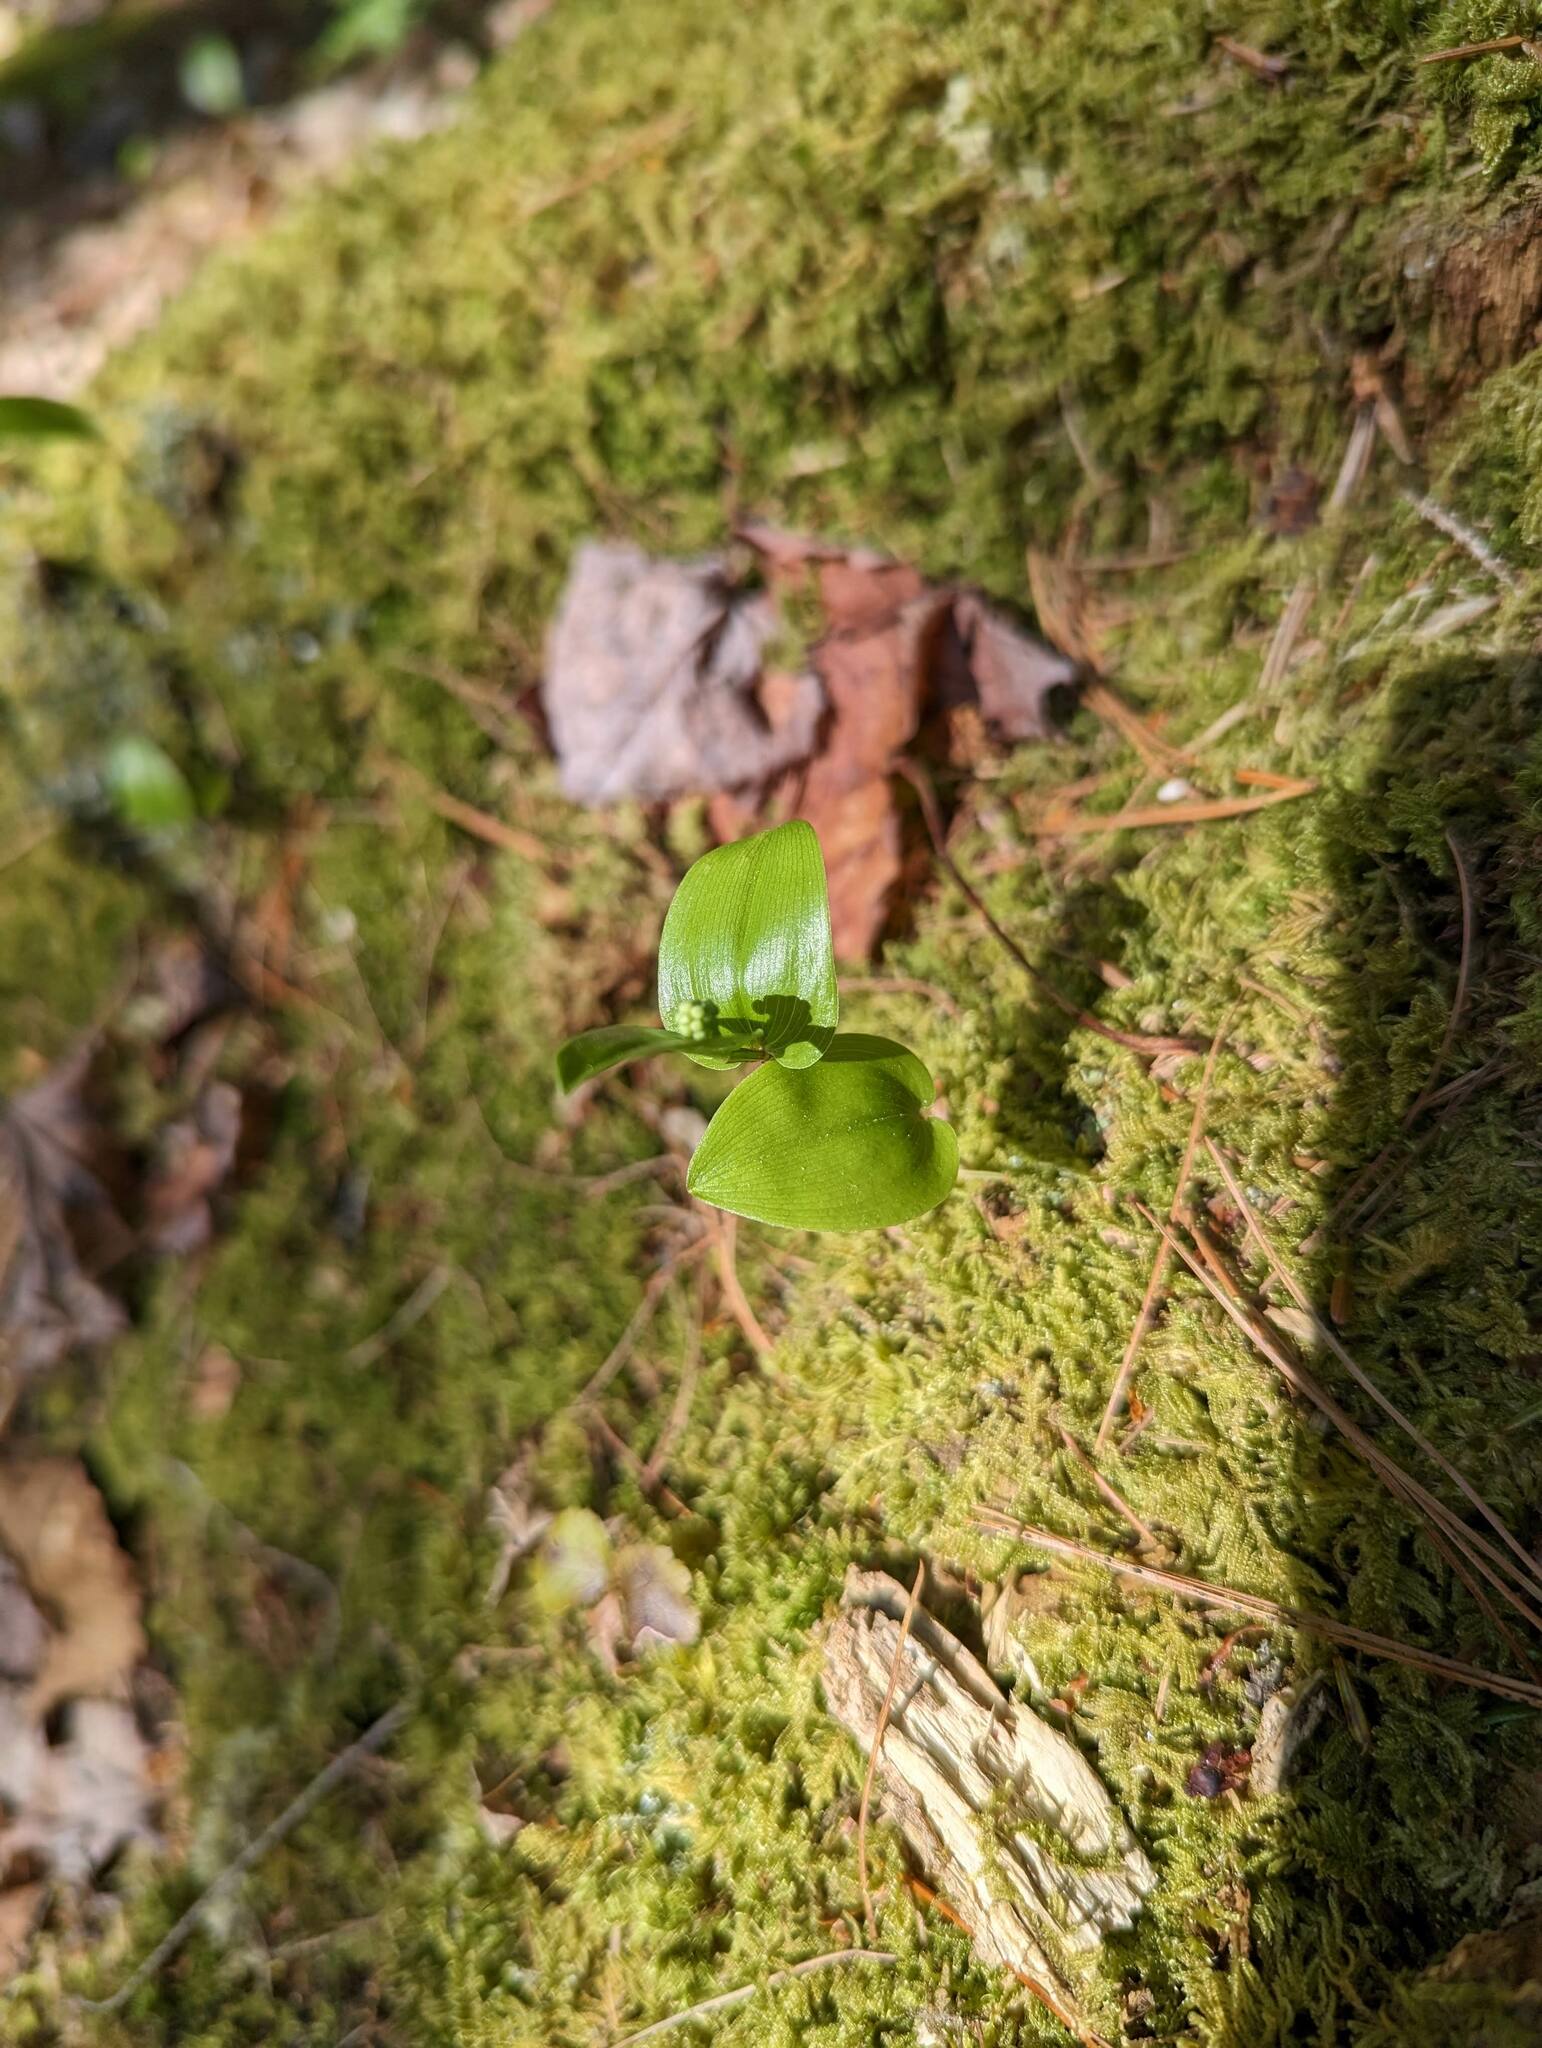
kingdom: Plantae
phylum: Tracheophyta
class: Liliopsida
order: Asparagales
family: Asparagaceae
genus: Maianthemum
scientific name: Maianthemum canadense
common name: False lily-of-the-valley
